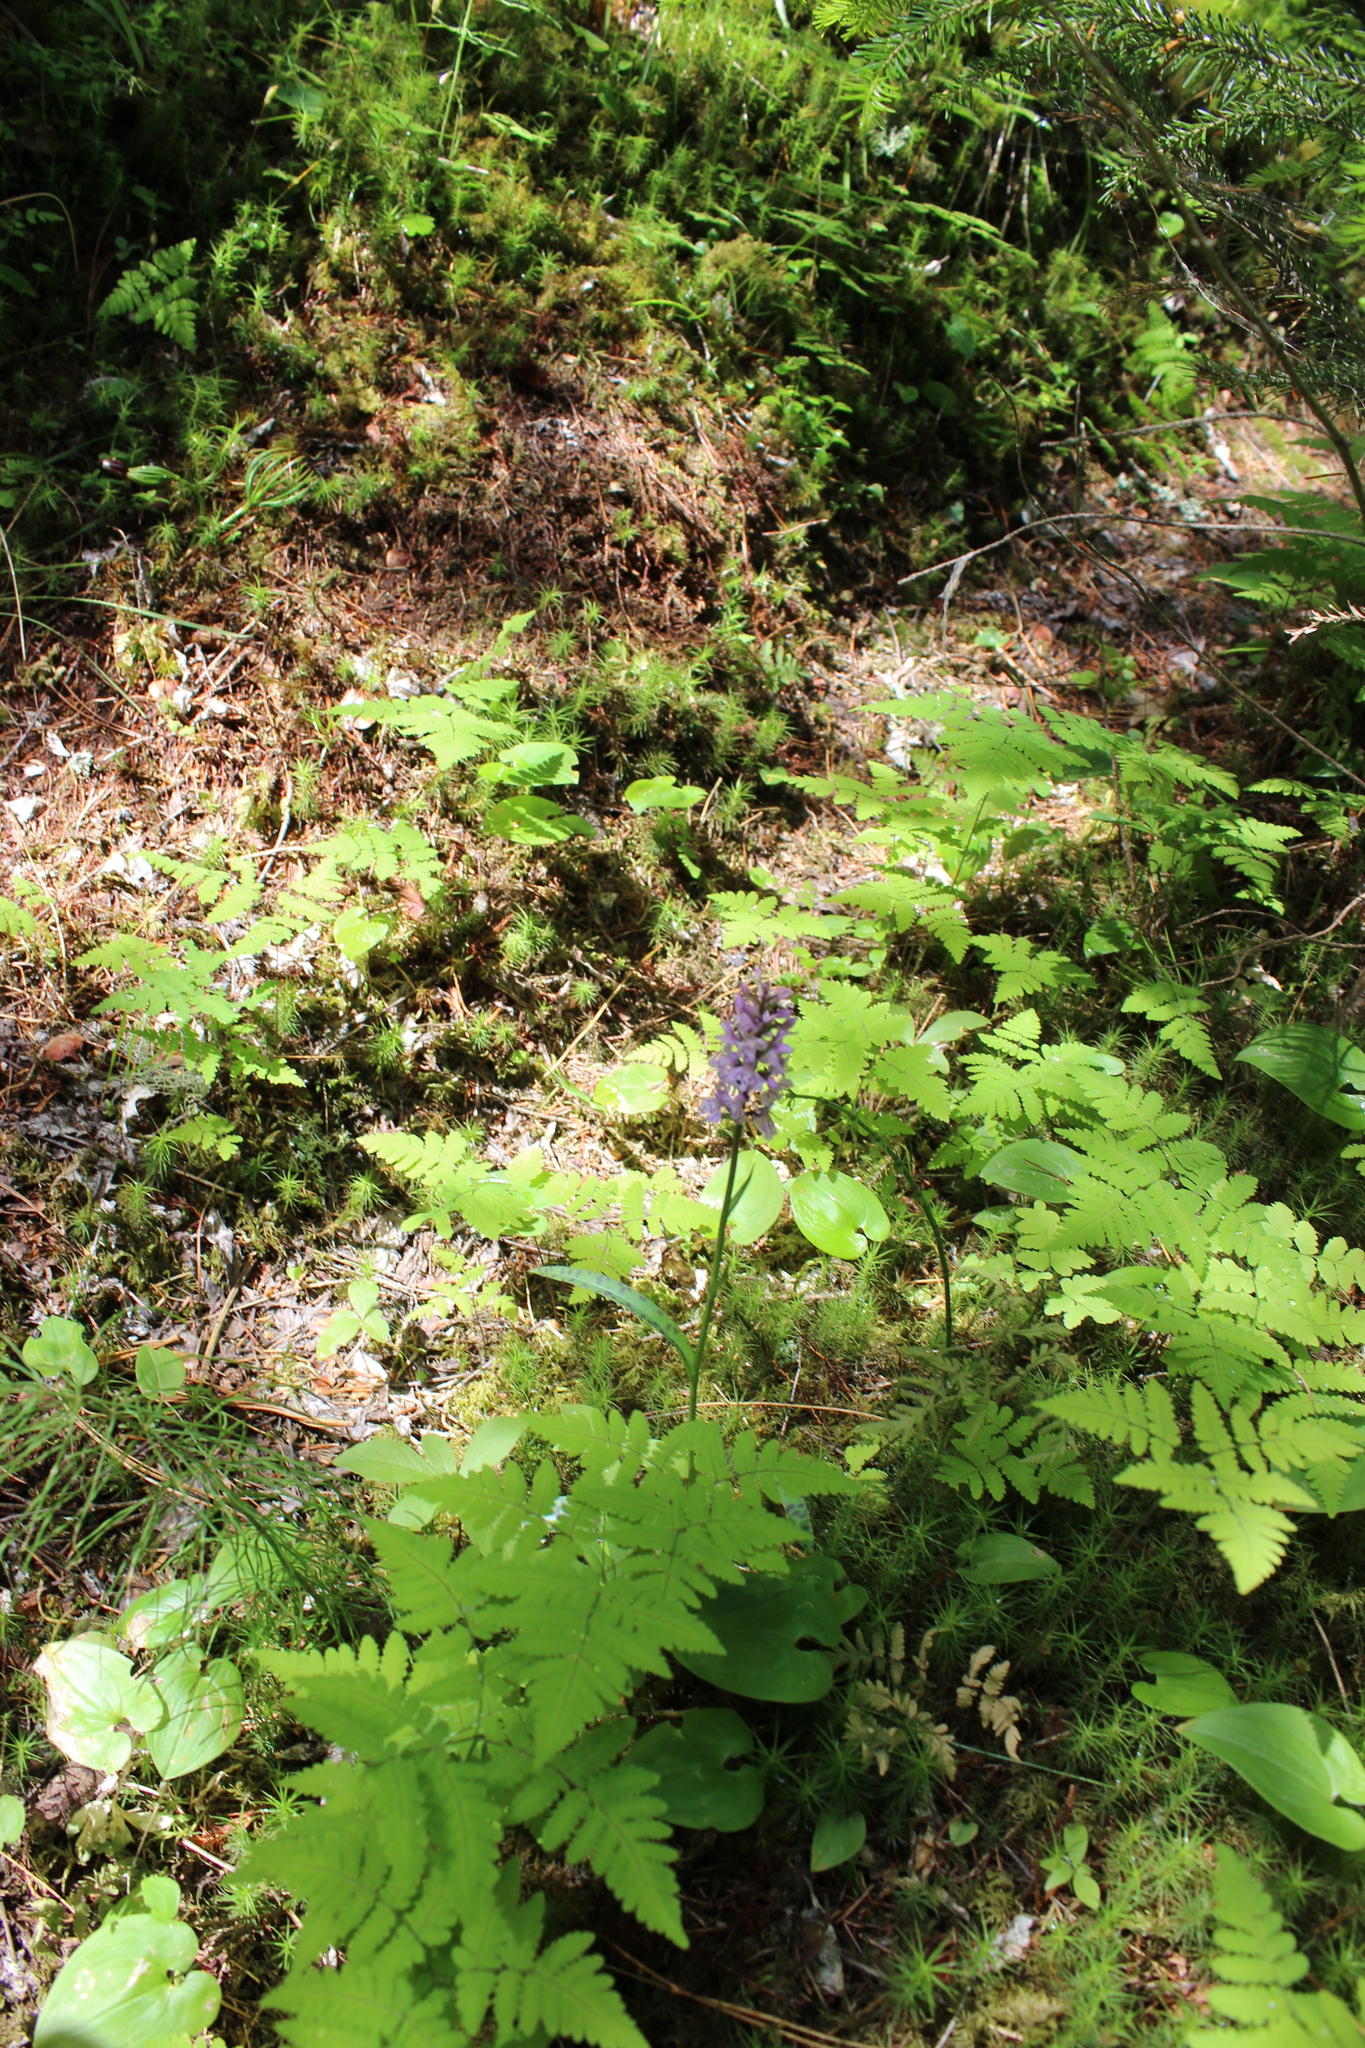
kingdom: Plantae
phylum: Tracheophyta
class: Liliopsida
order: Asparagales
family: Orchidaceae
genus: Dactylorhiza
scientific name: Dactylorhiza maculata
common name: Heath spotted-orchid
